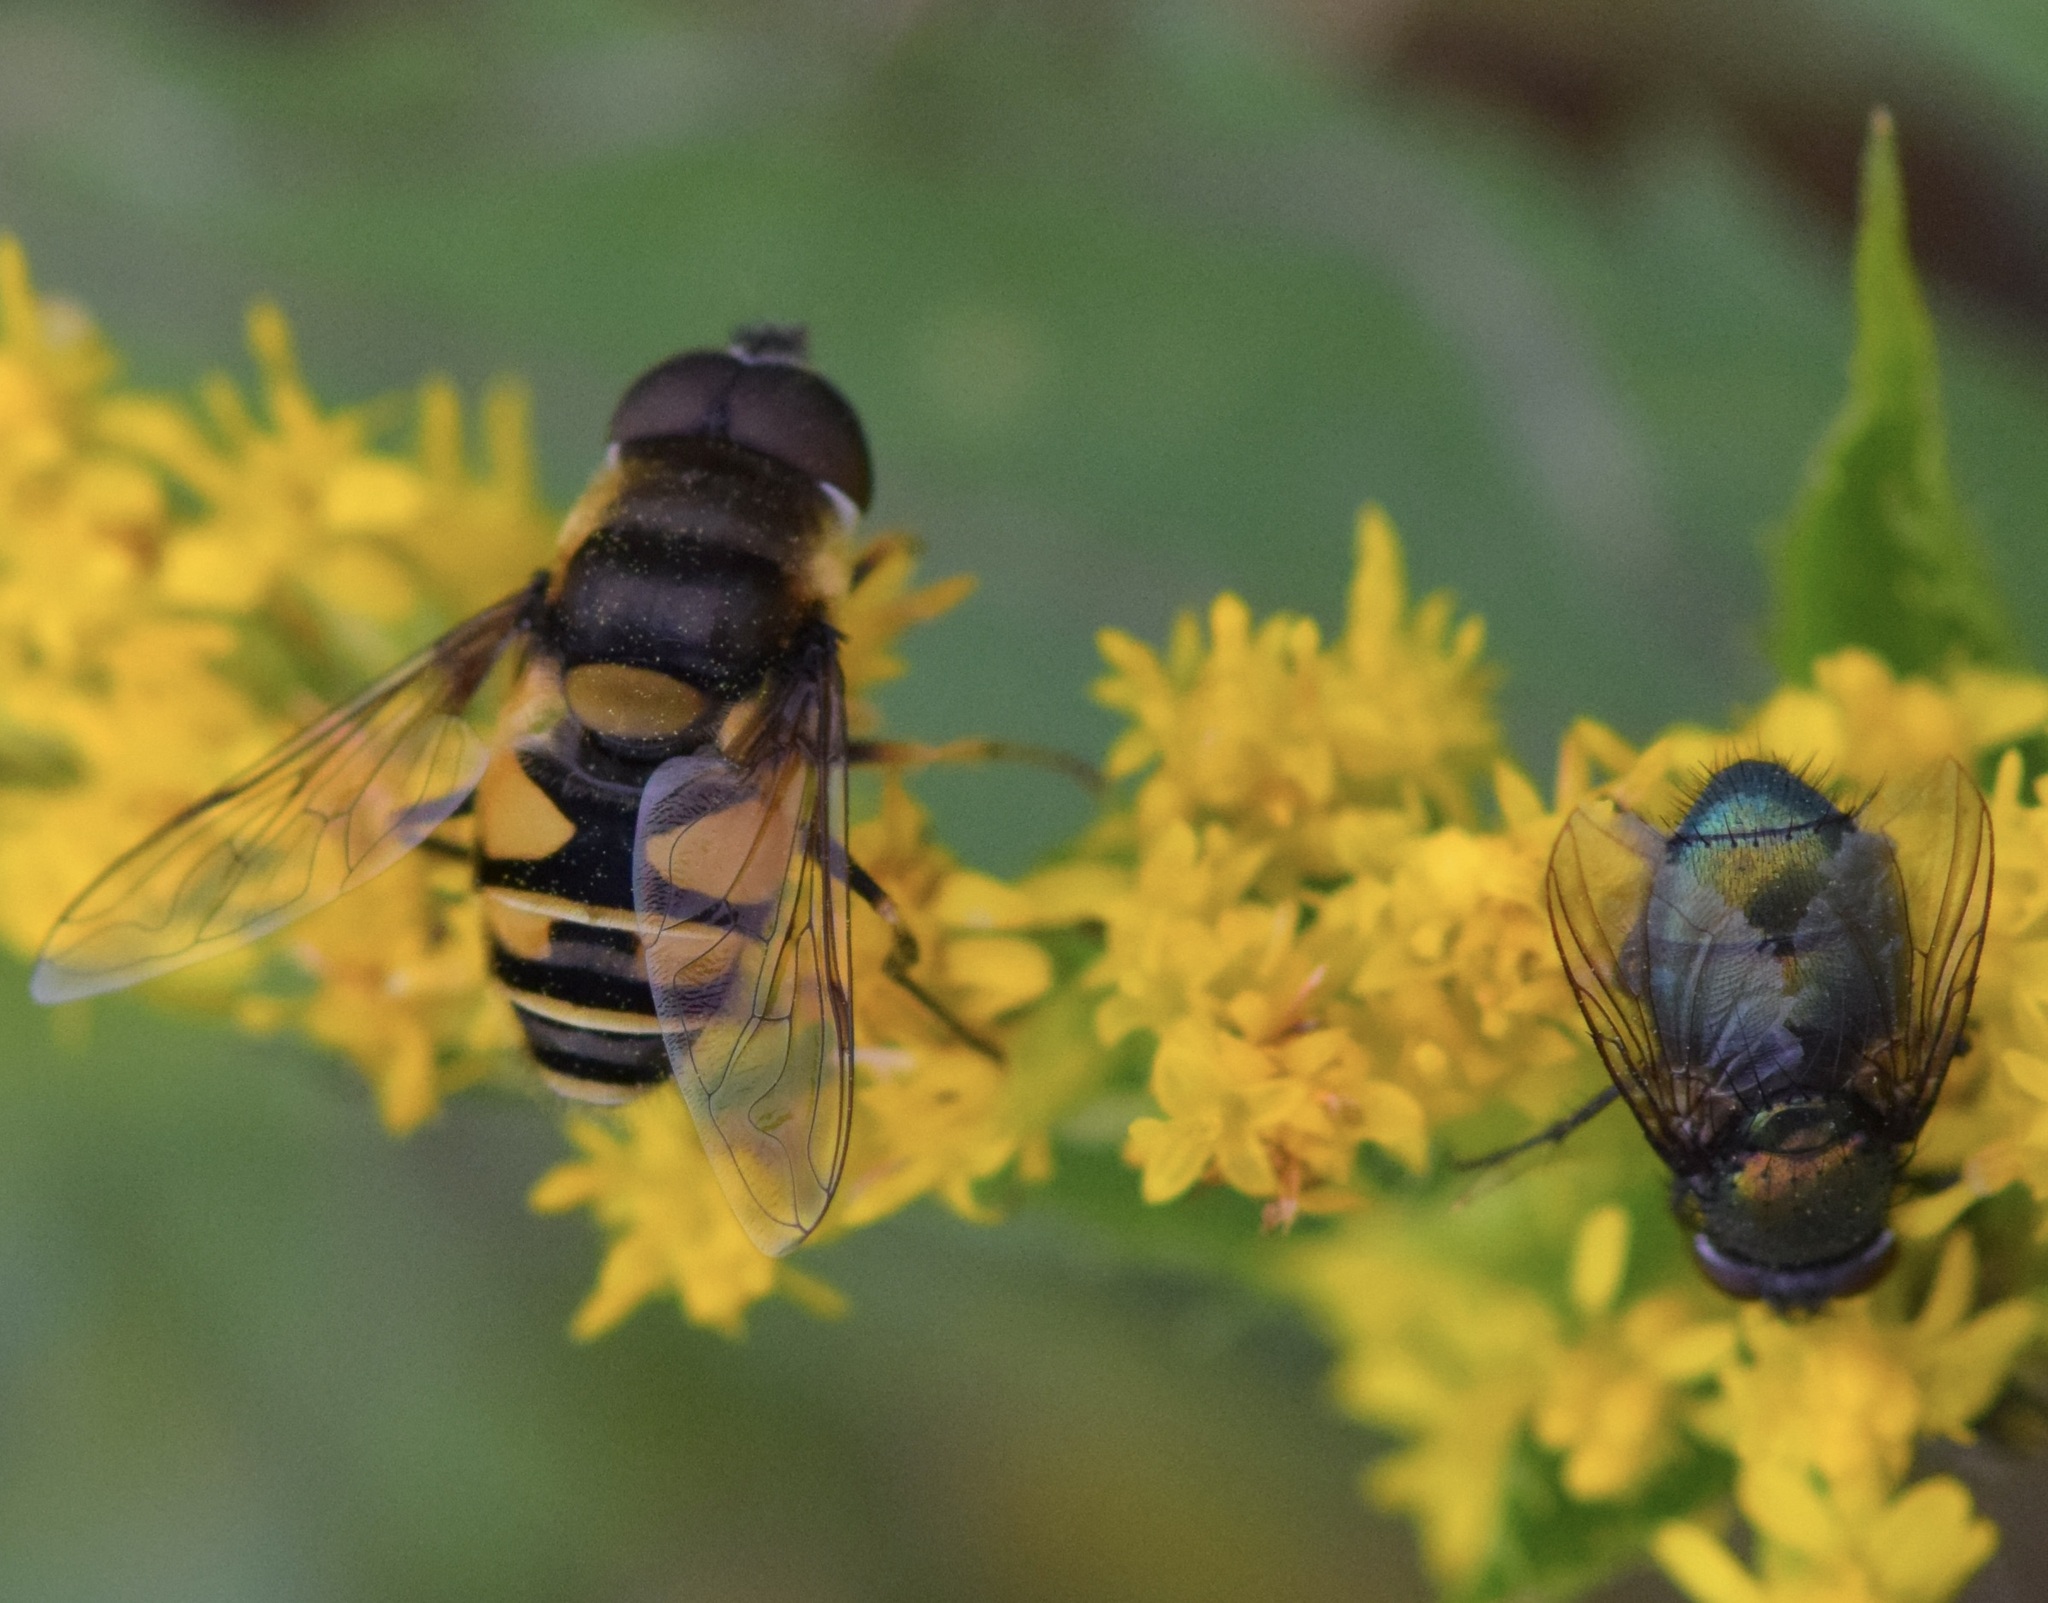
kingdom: Animalia
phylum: Arthropoda
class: Insecta
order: Diptera
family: Syrphidae
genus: Eristalis
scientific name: Eristalis transversa
